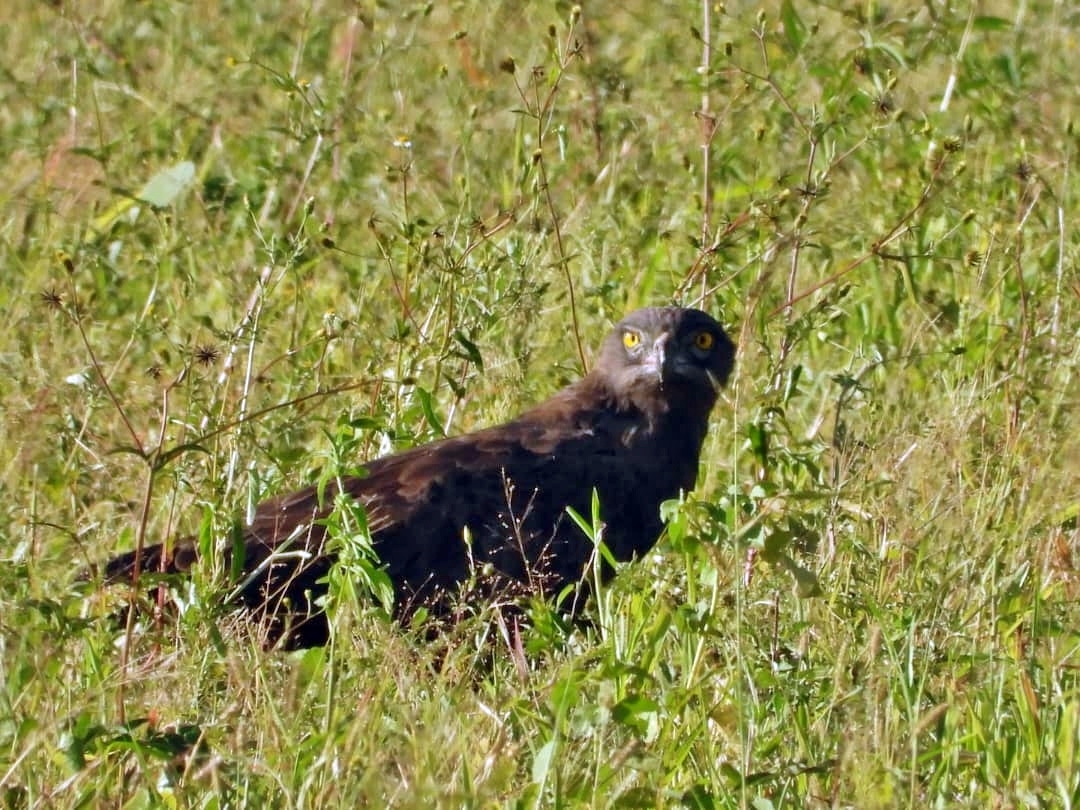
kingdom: Animalia
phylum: Chordata
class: Aves
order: Accipitriformes
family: Accipitridae
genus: Circaetus
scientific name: Circaetus cinereus
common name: Brown snake eagle
